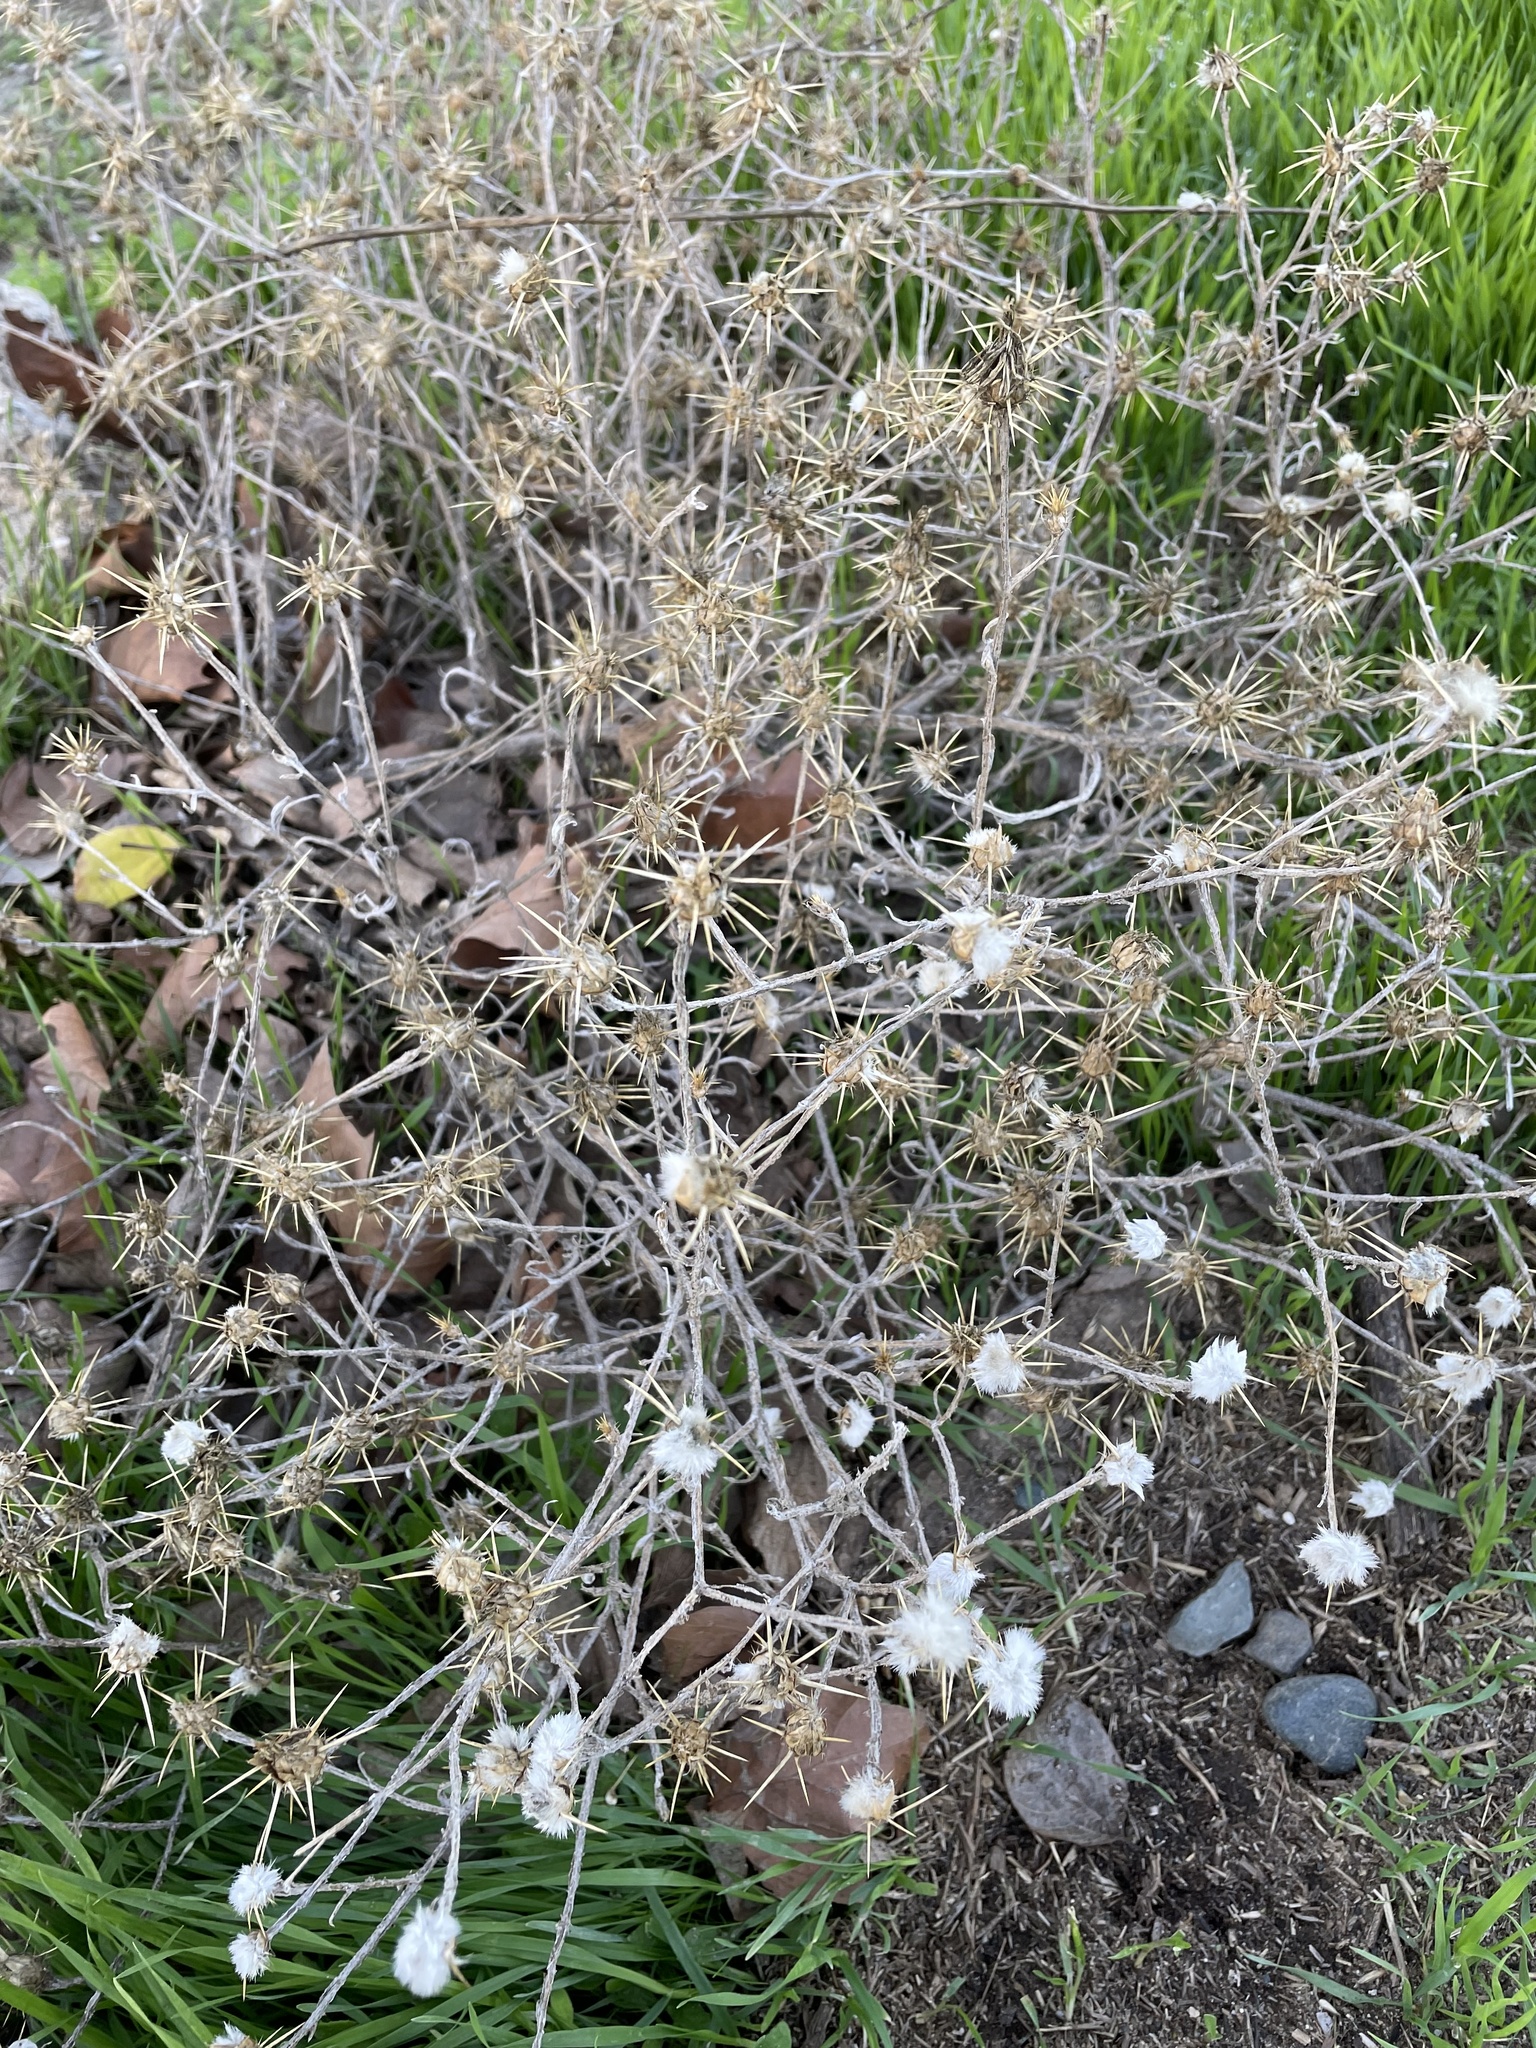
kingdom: Plantae
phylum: Tracheophyta
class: Magnoliopsida
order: Asterales
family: Asteraceae
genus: Centaurea
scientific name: Centaurea solstitialis
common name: Yellow star-thistle
